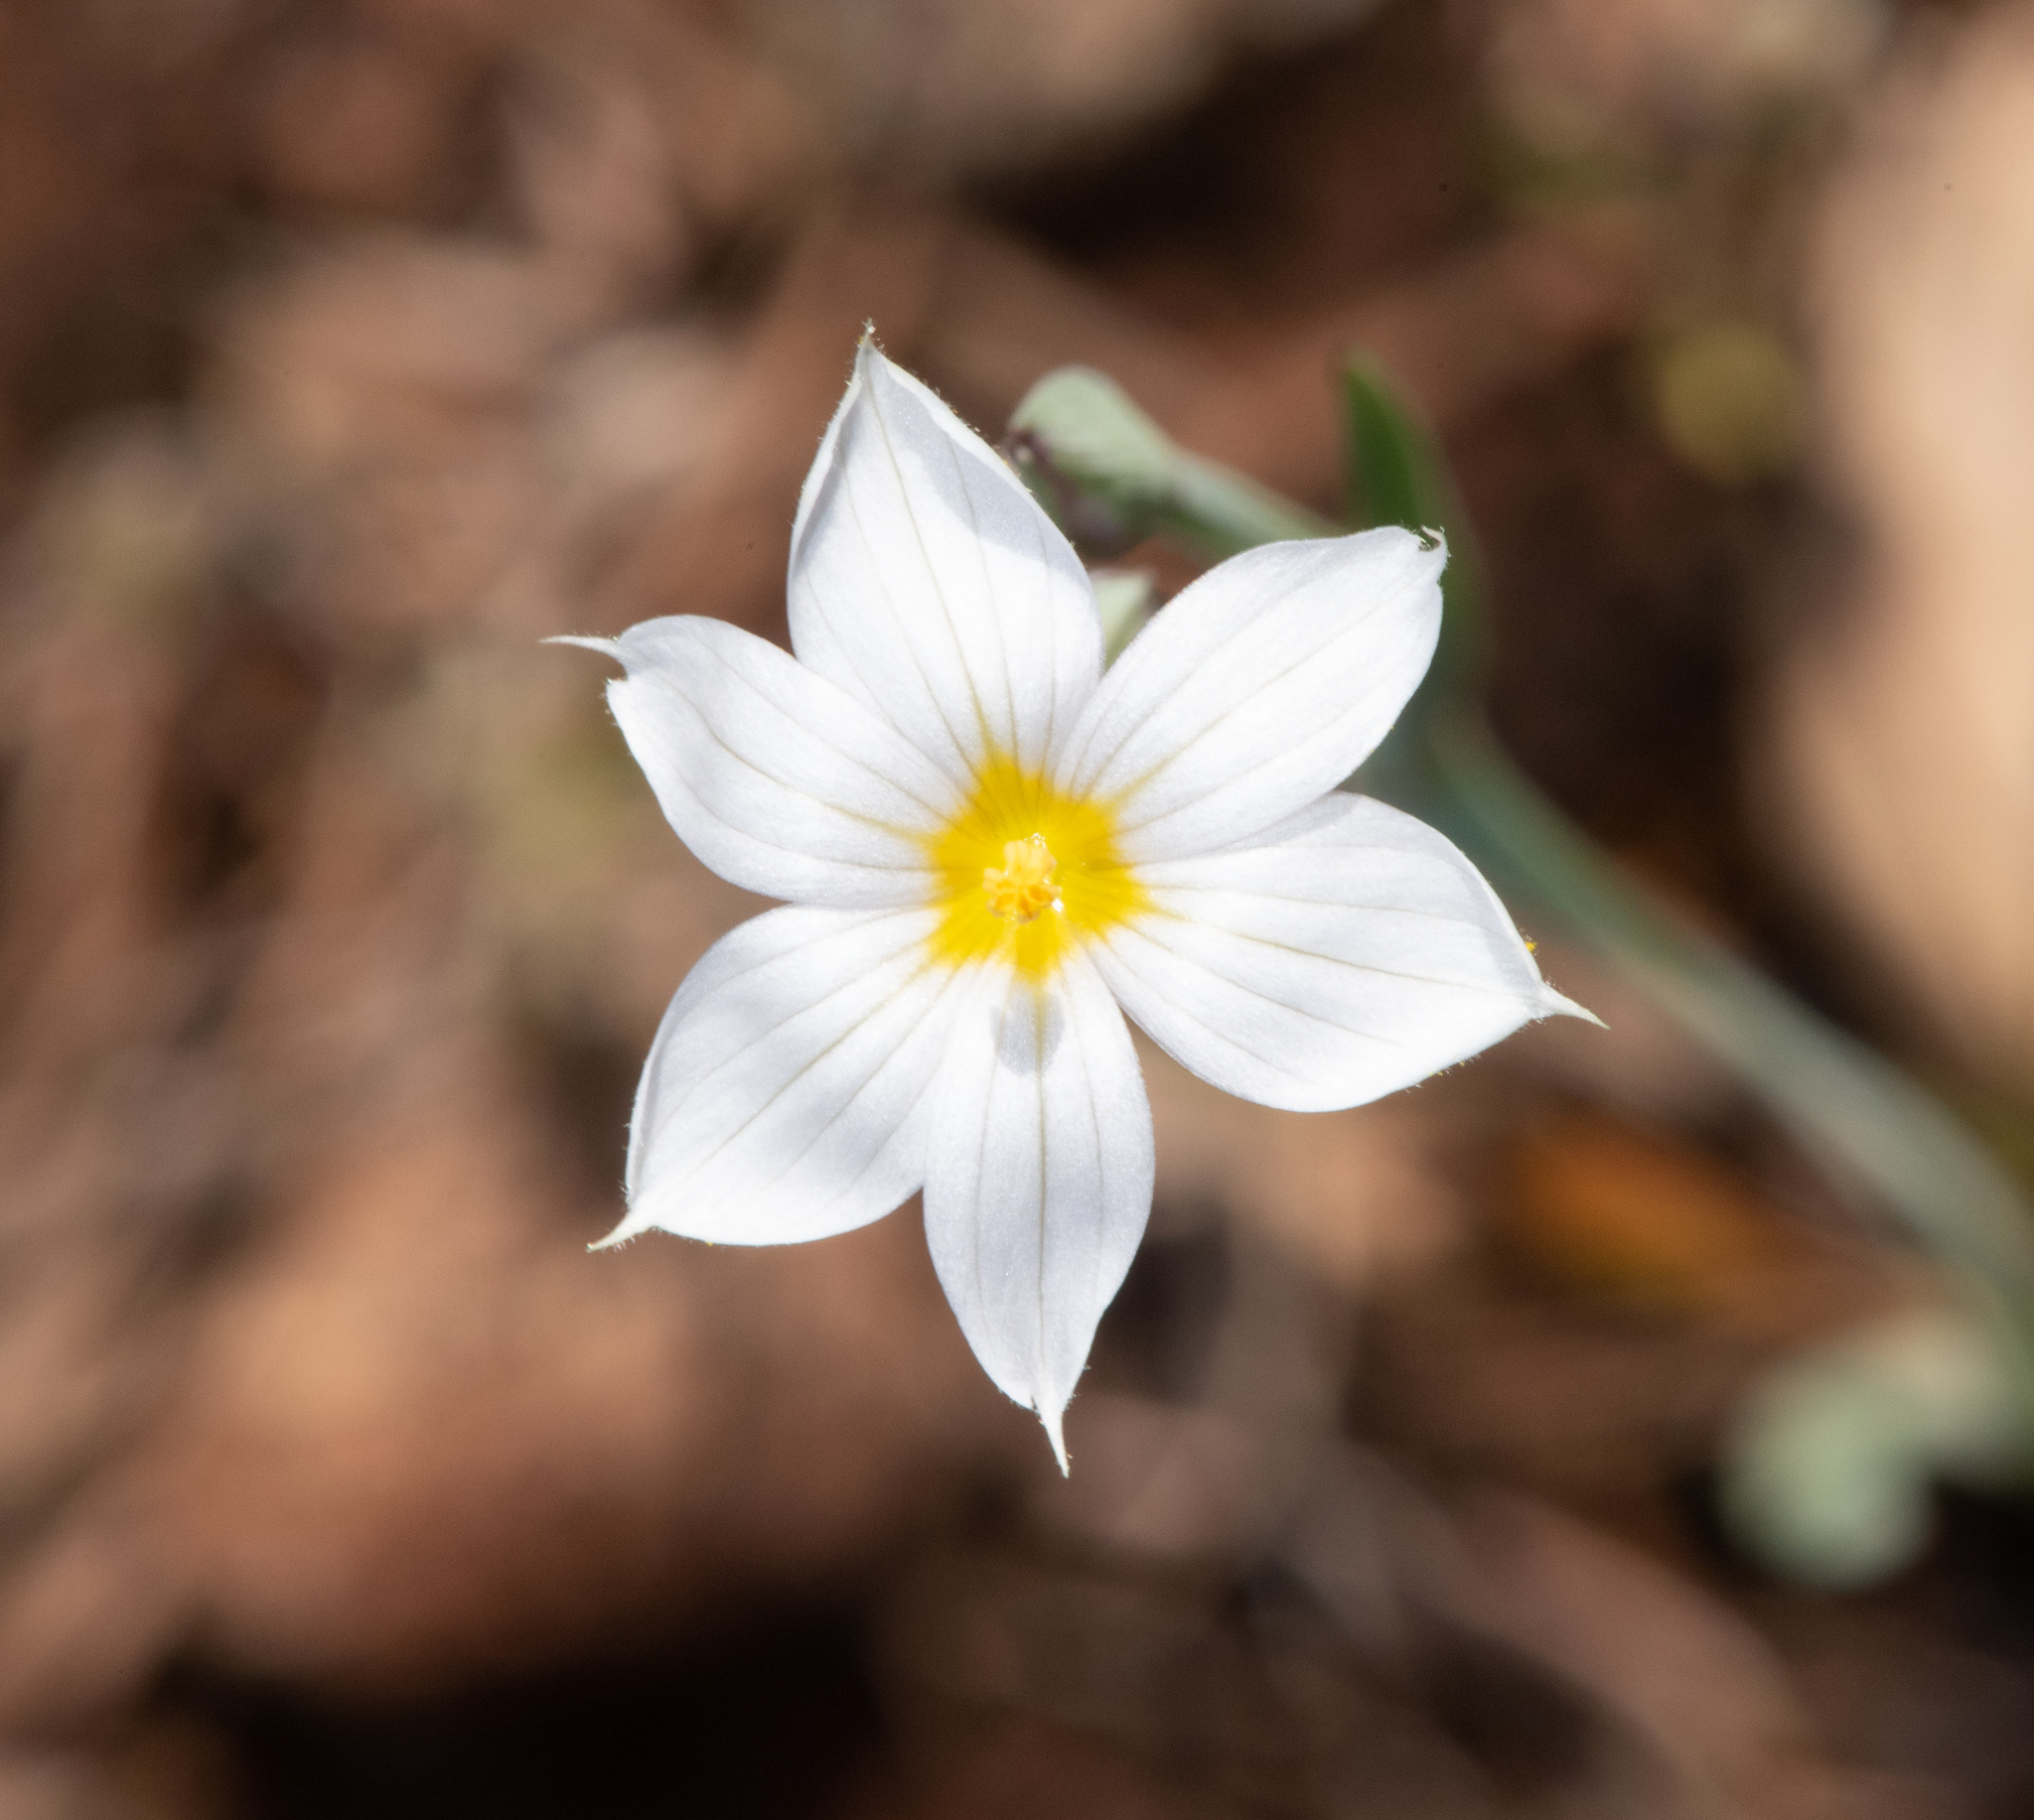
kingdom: Plantae
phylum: Tracheophyta
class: Liliopsida
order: Asparagales
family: Iridaceae
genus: Sisyrinchium
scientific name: Sisyrinchium bellum
